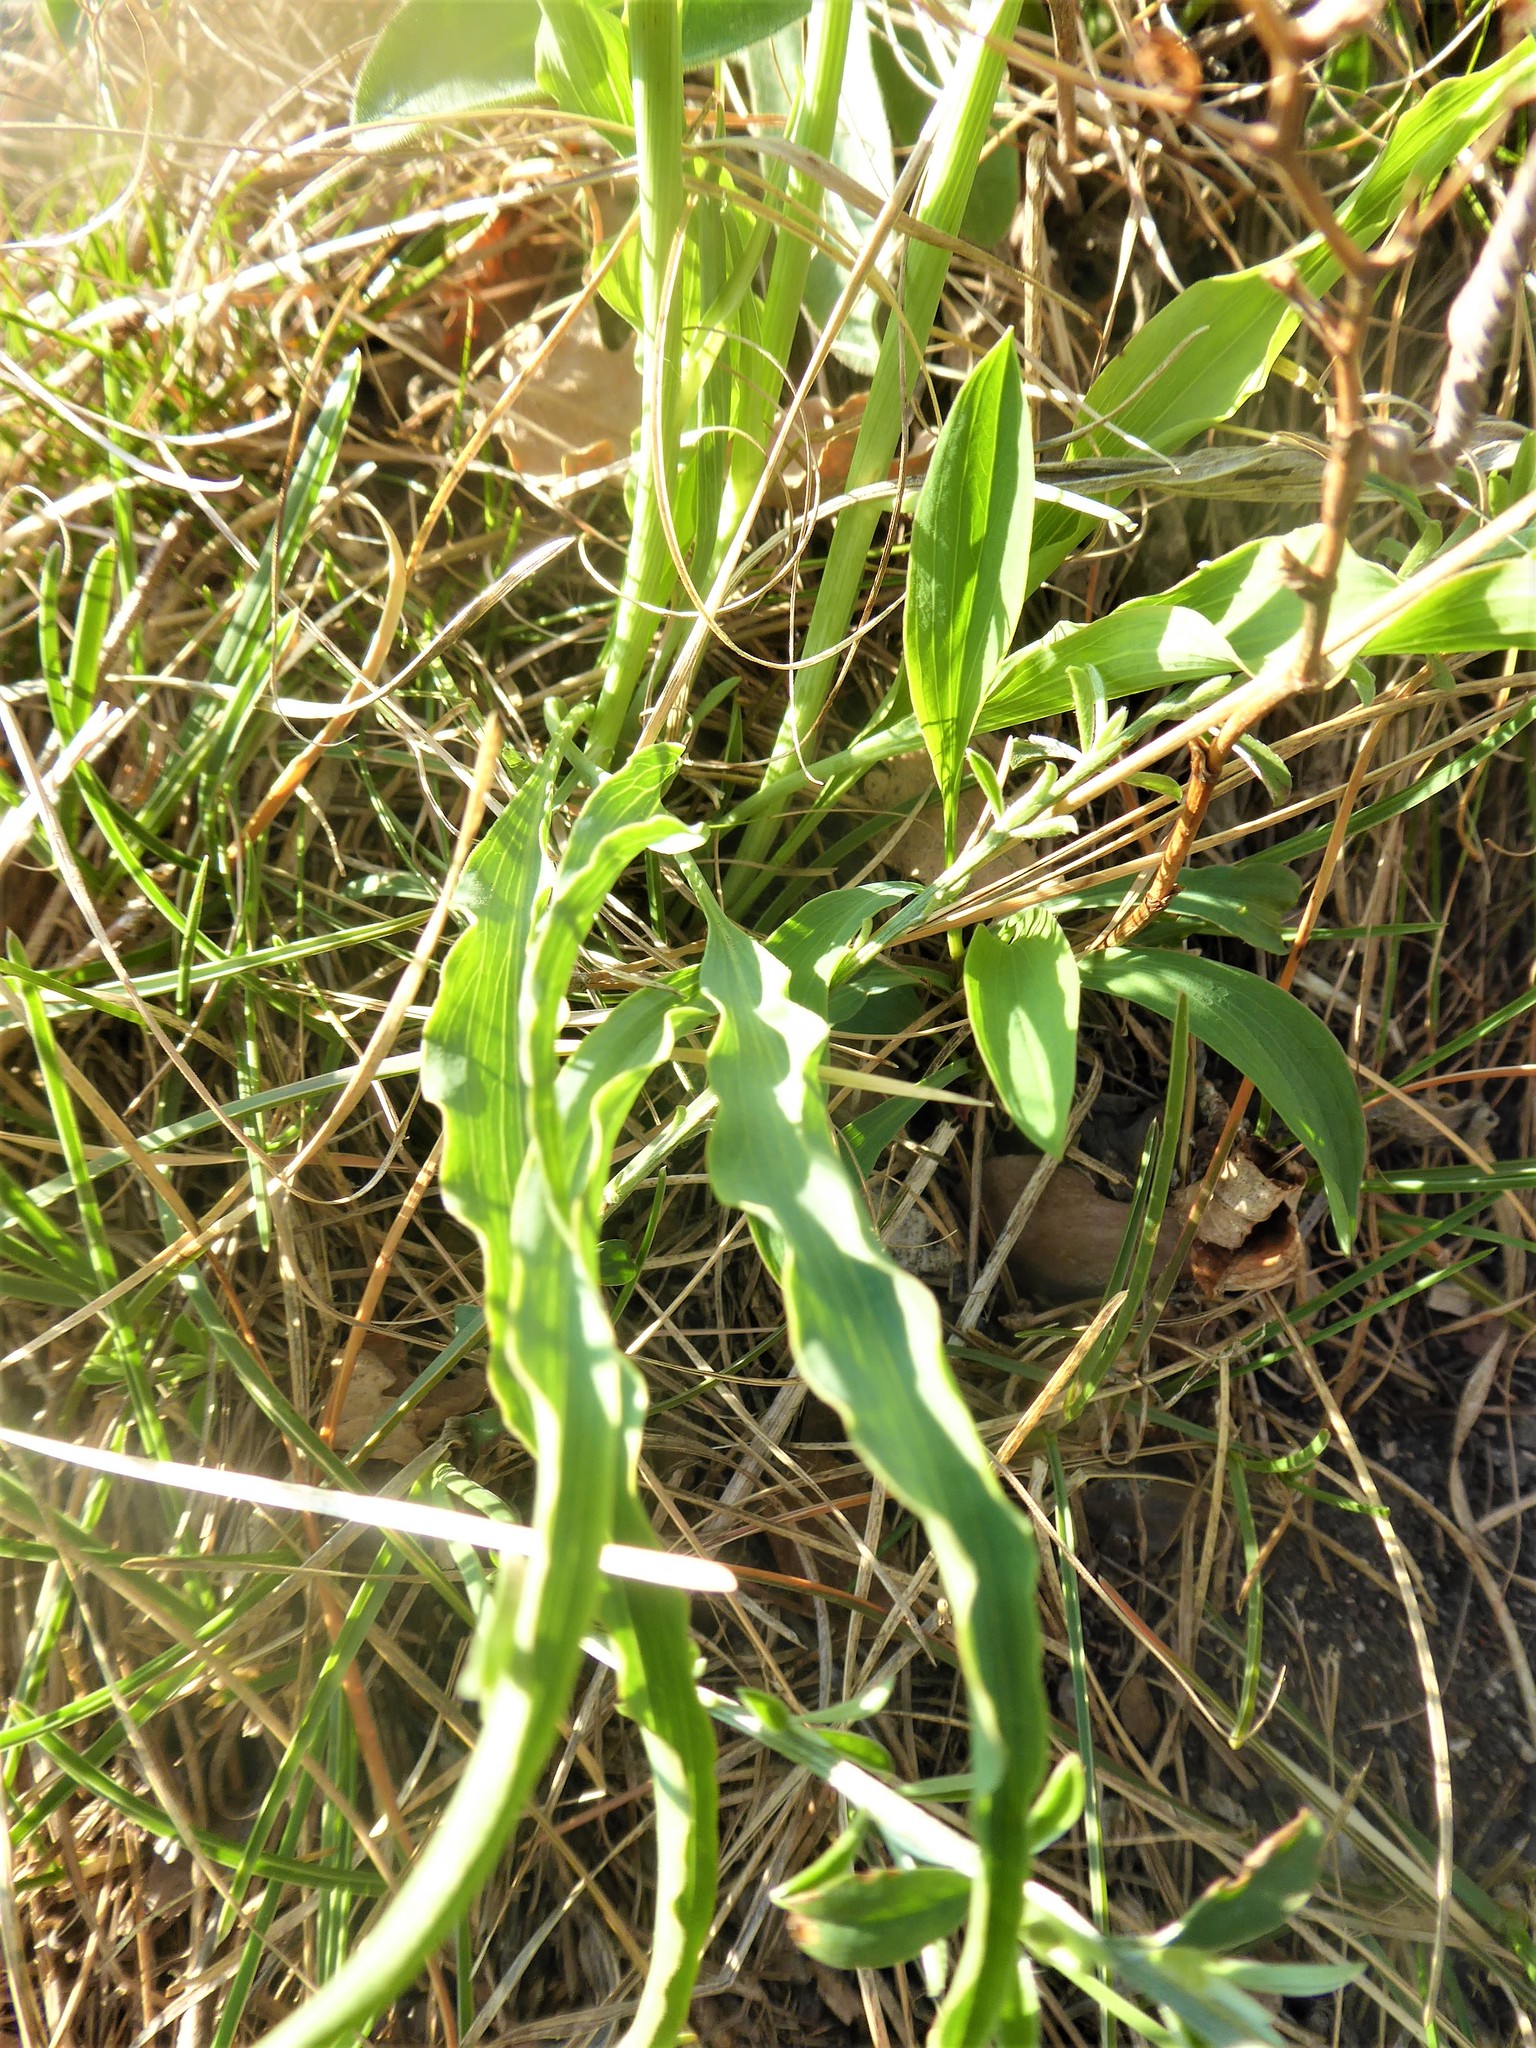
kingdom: Plantae
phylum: Tracheophyta
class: Magnoliopsida
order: Asterales
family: Asteraceae
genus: Takhtajaniantha
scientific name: Takhtajaniantha austriaca
